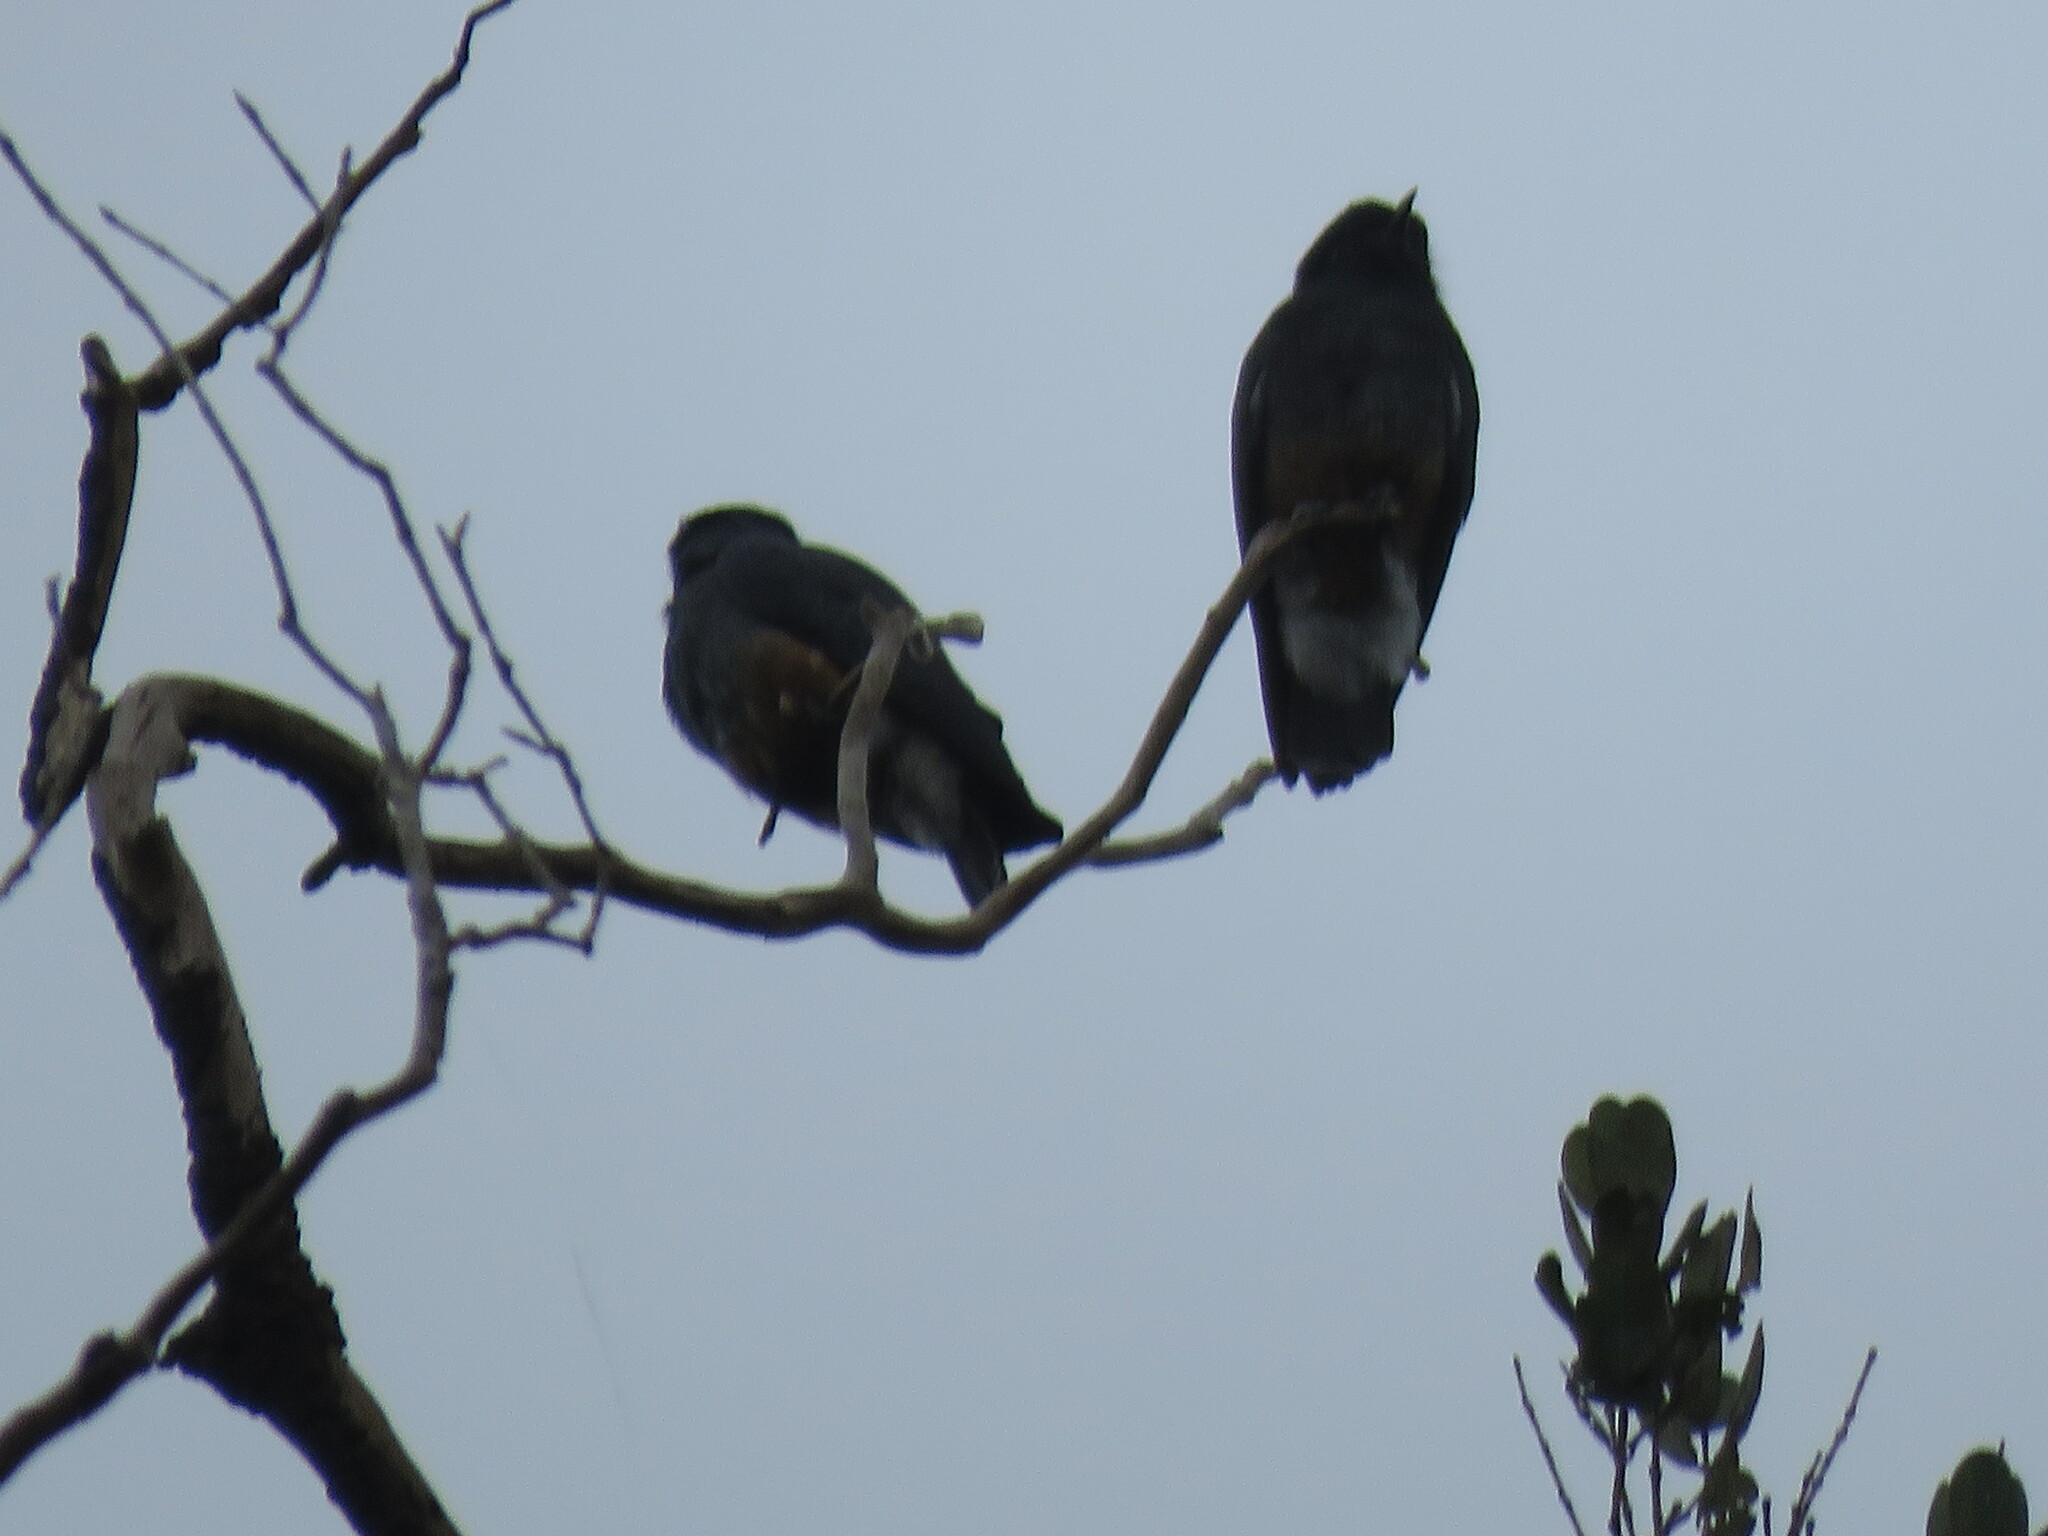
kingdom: Animalia
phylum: Chordata
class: Aves
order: Piciformes
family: Bucconidae
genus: Chelidoptera
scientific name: Chelidoptera tenebrosa
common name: Swallow-winged puffbird
